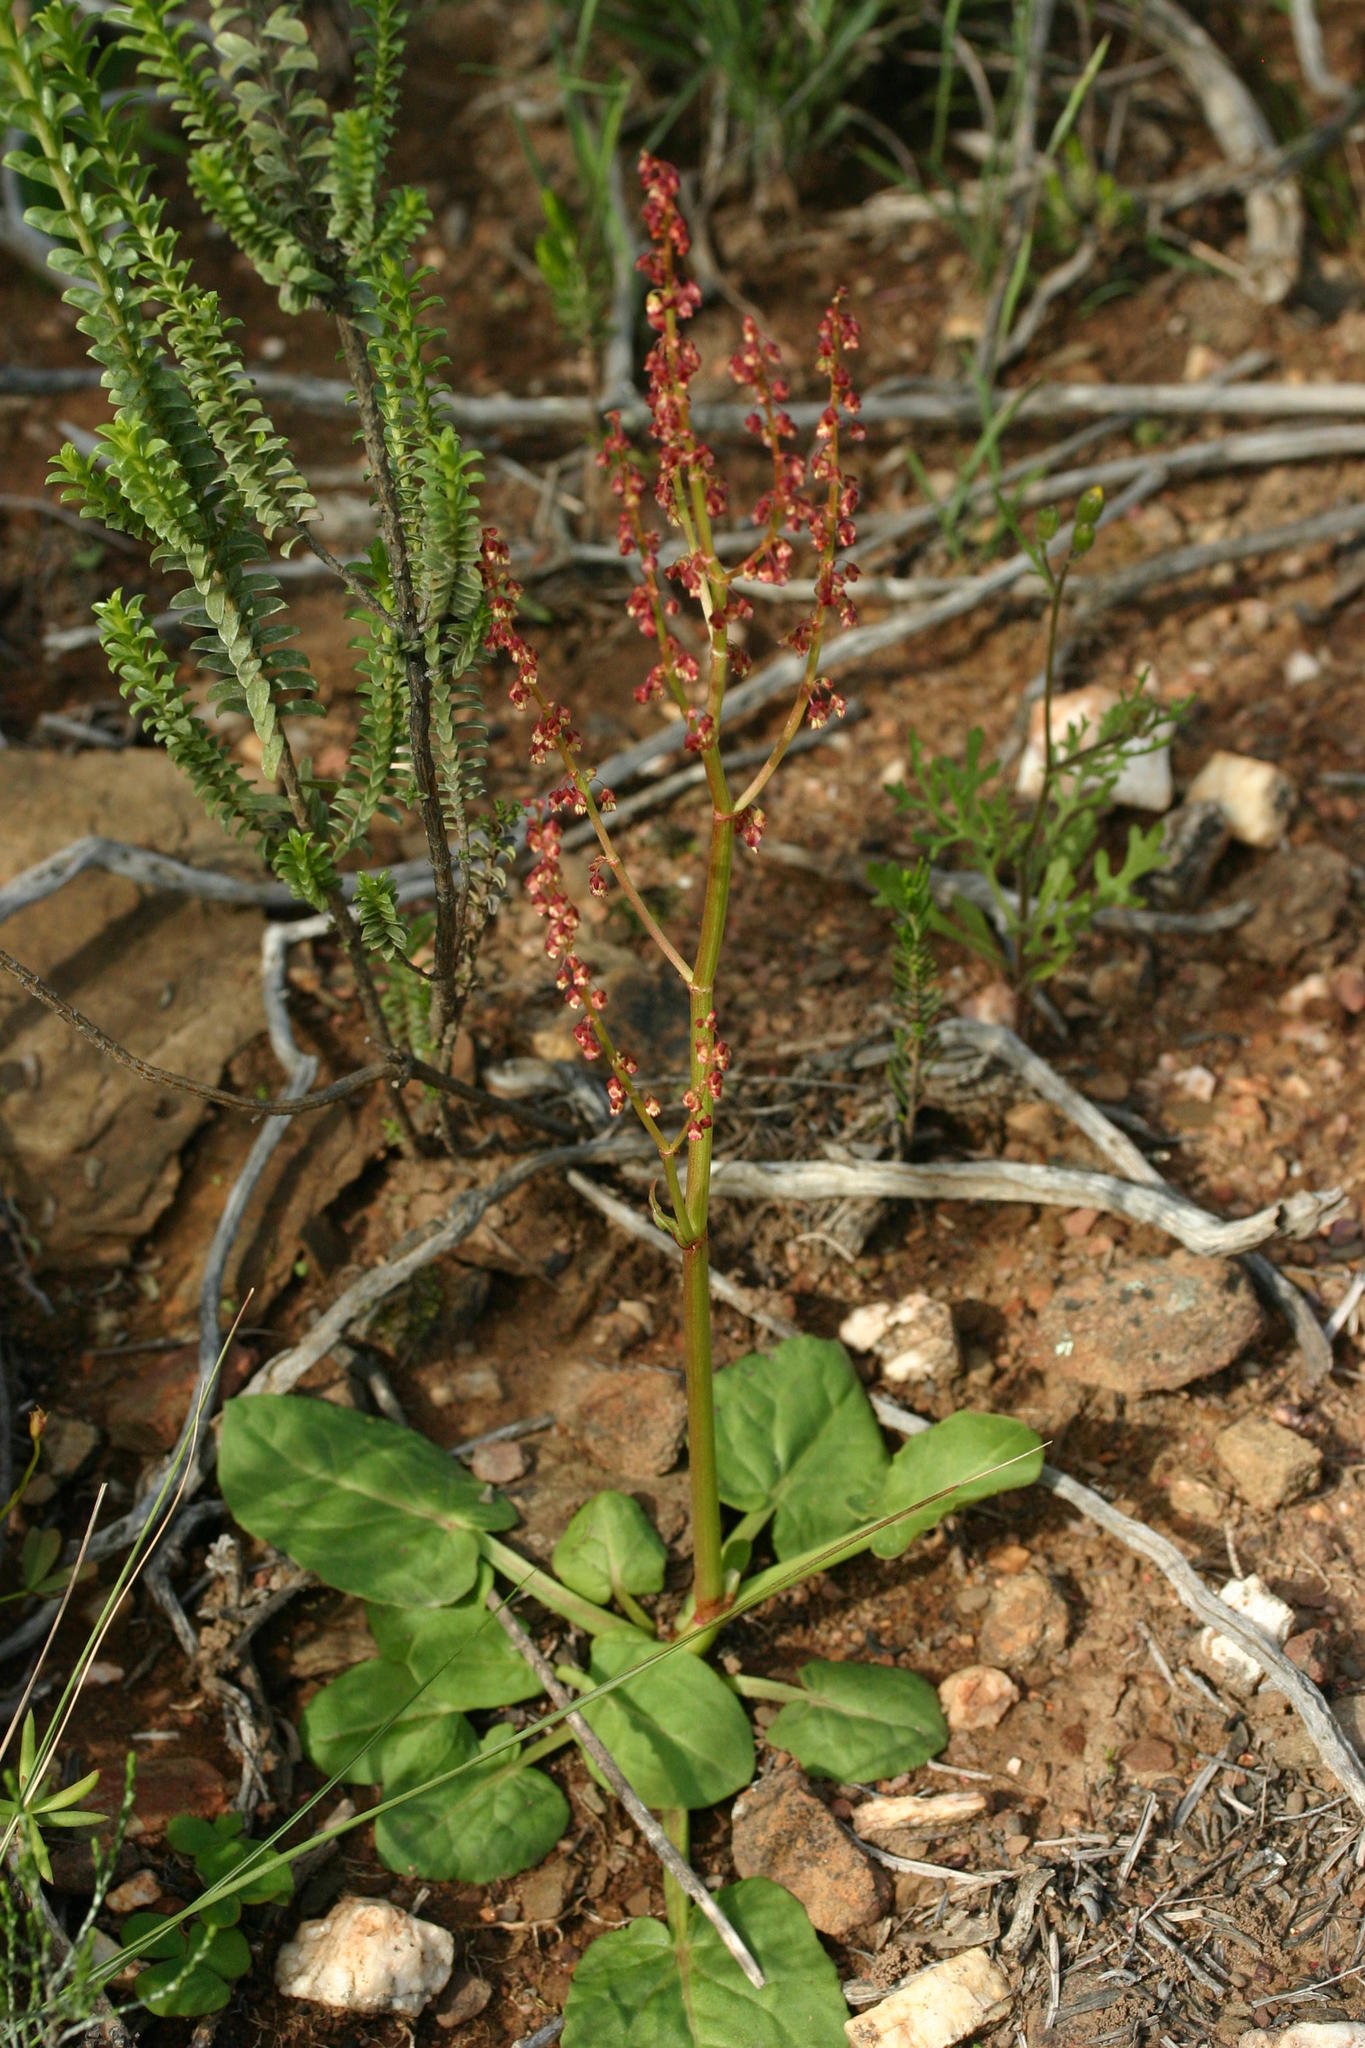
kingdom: Plantae
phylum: Tracheophyta
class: Magnoliopsida
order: Caryophyllales
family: Polygonaceae
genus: Rumex
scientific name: Rumex cordatus
